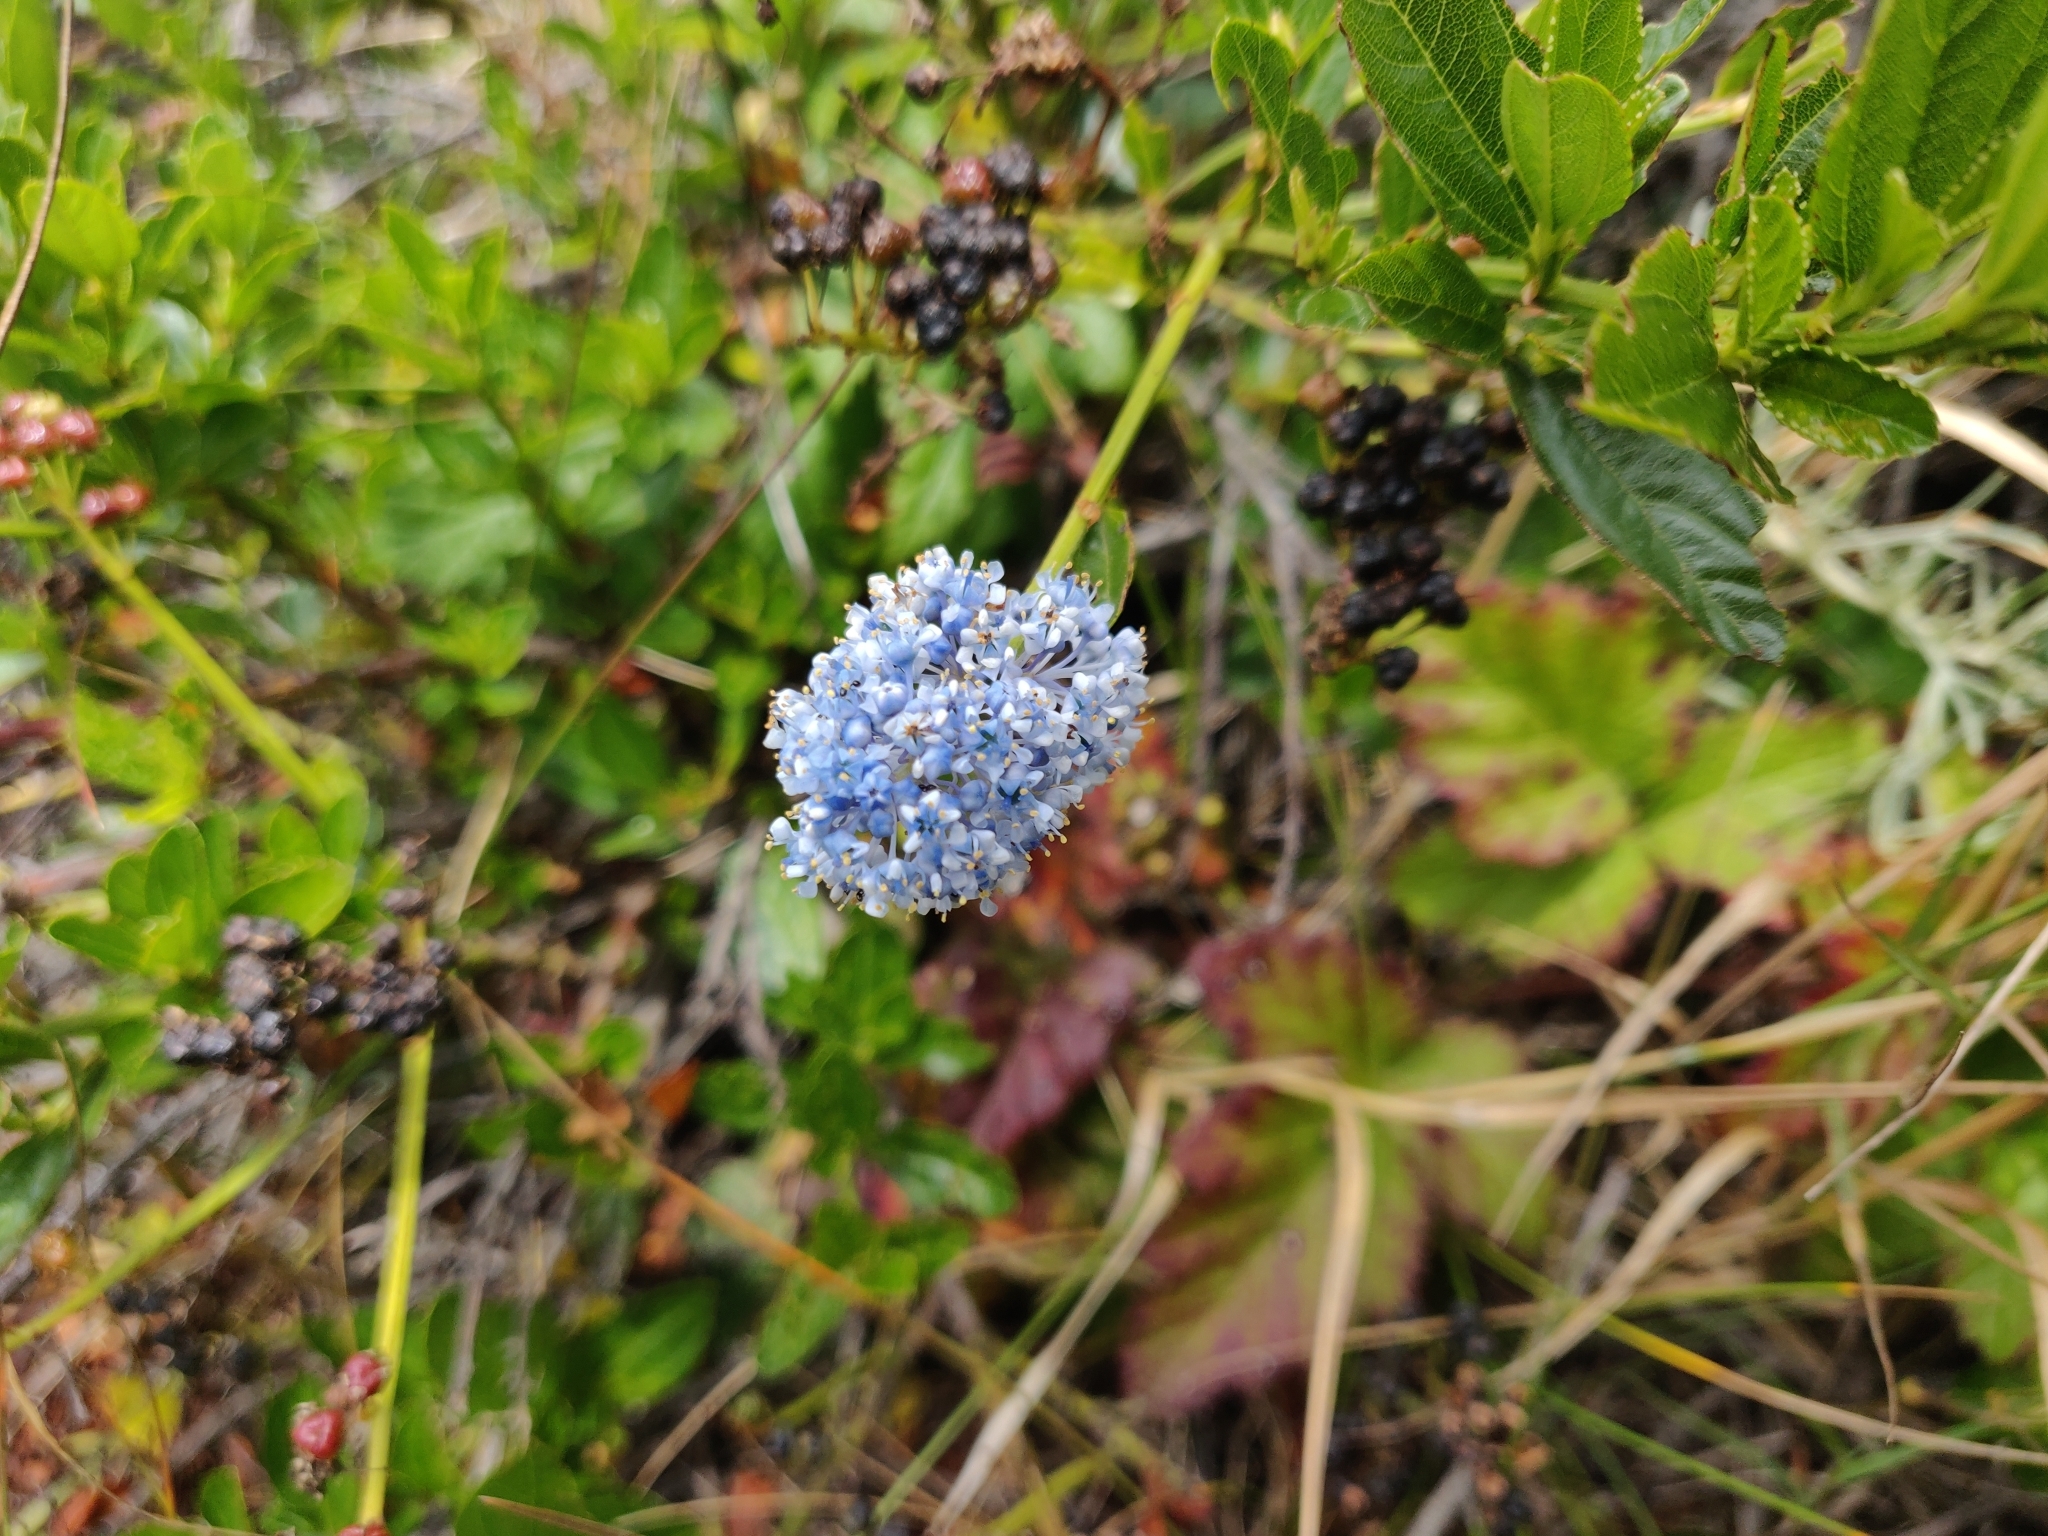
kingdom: Plantae
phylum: Tracheophyta
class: Magnoliopsida
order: Rosales
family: Rhamnaceae
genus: Ceanothus
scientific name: Ceanothus thyrsiflorus
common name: California-lilac
